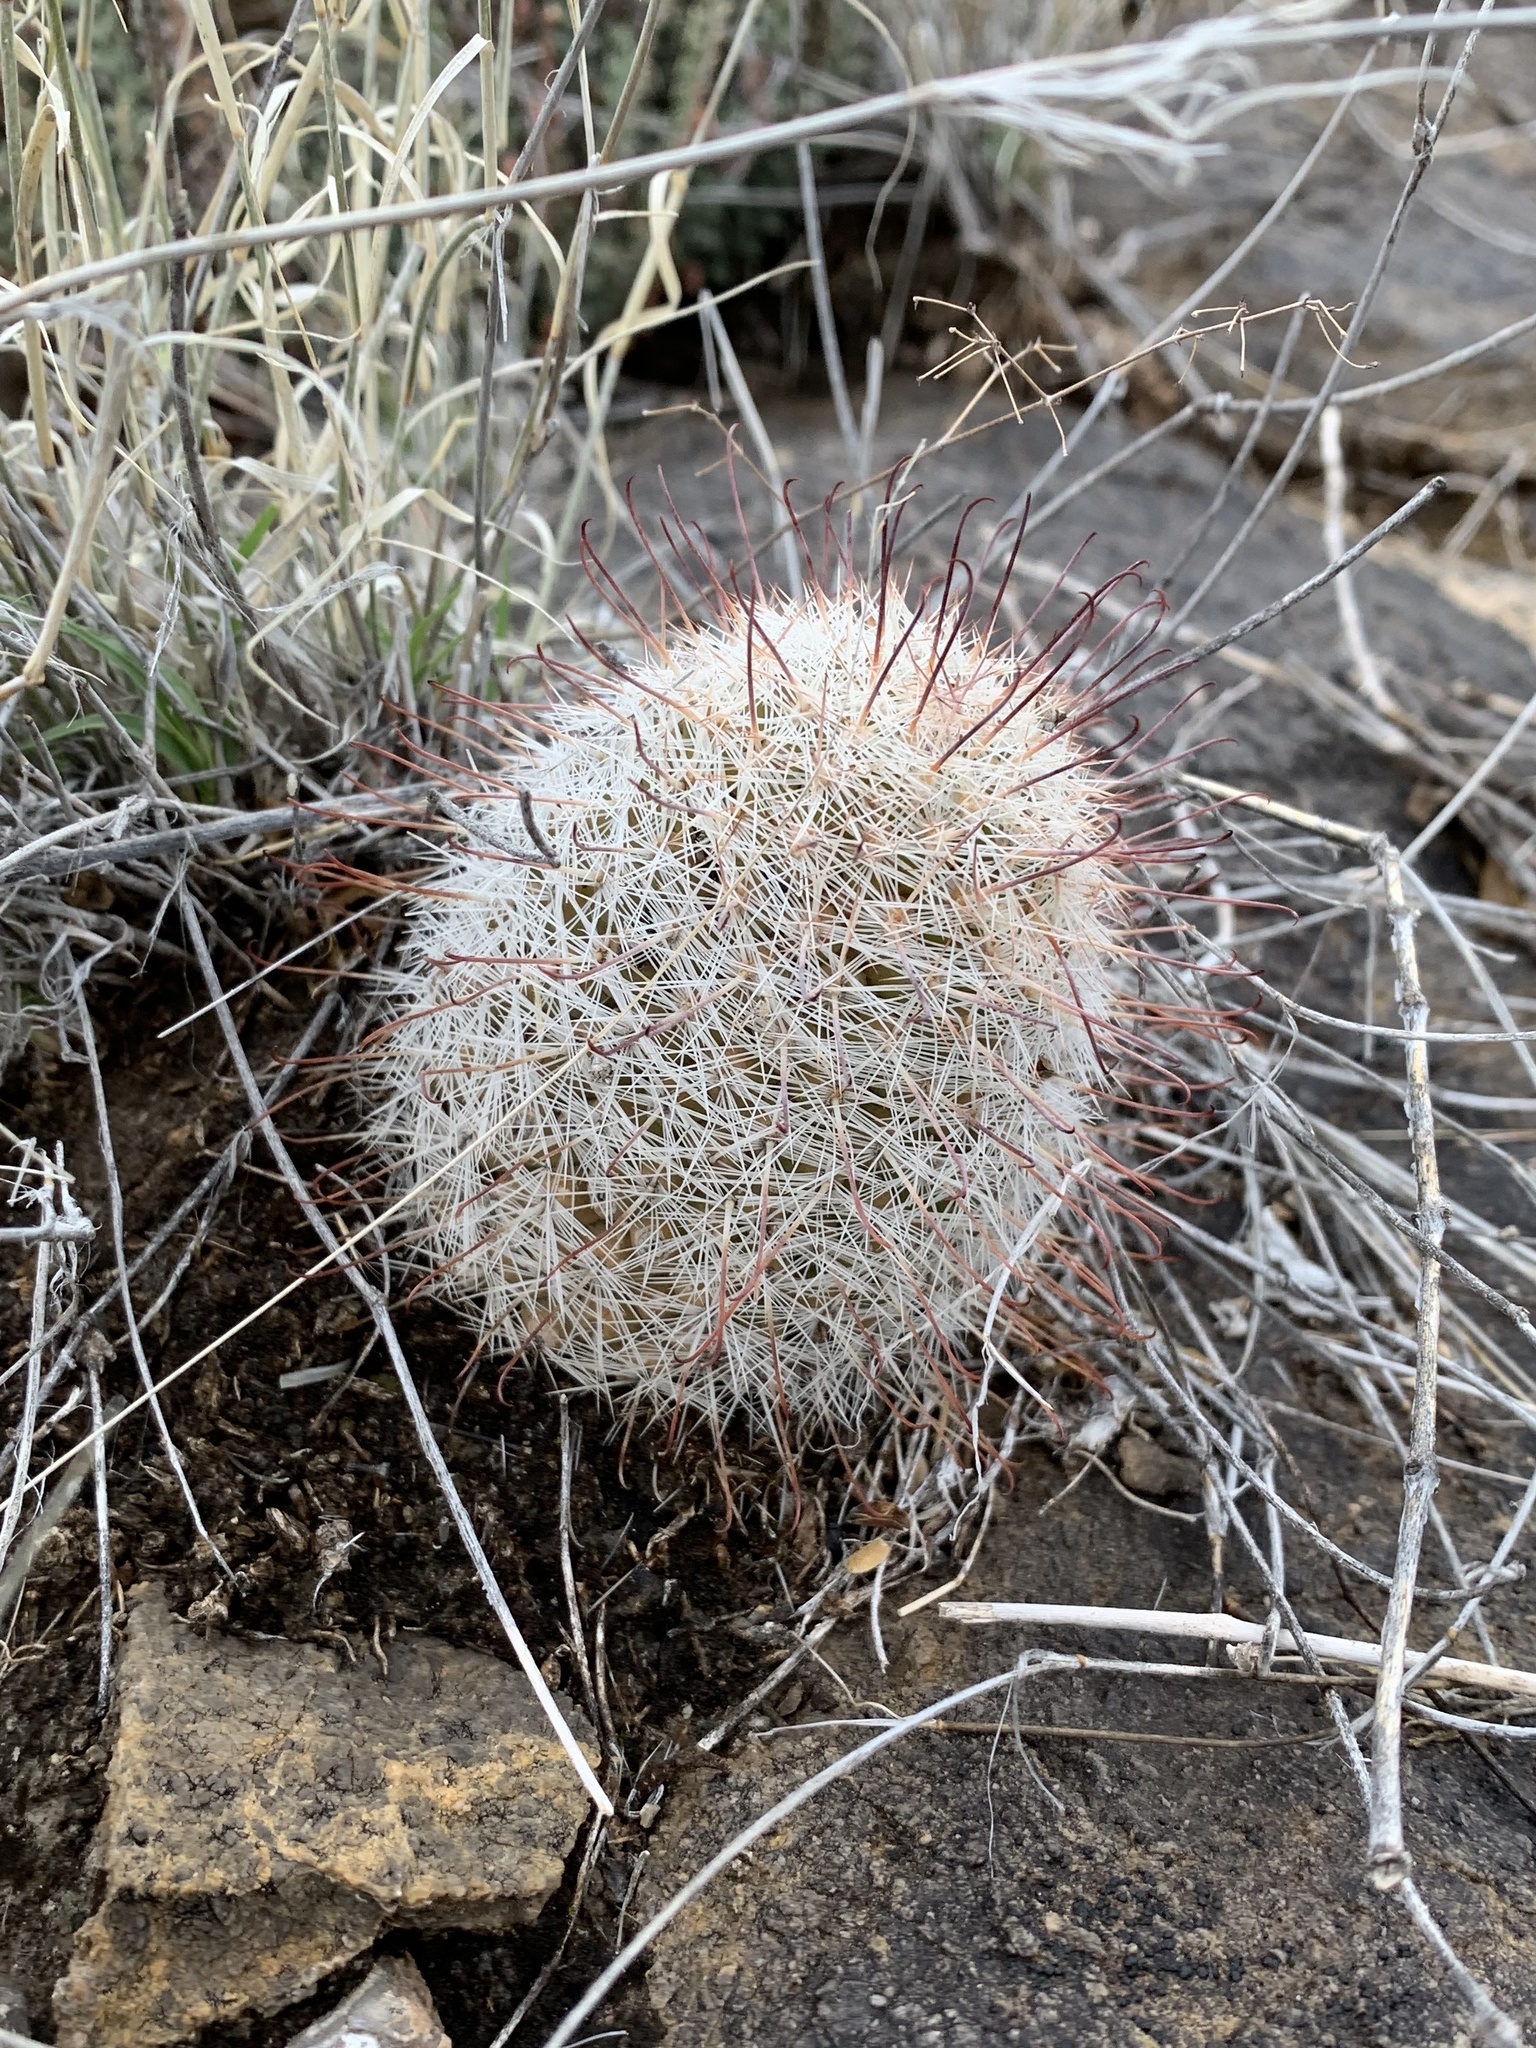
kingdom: Plantae
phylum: Tracheophyta
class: Magnoliopsida
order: Caryophyllales
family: Cactaceae
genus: Cochemiea
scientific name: Cochemiea grahamii
